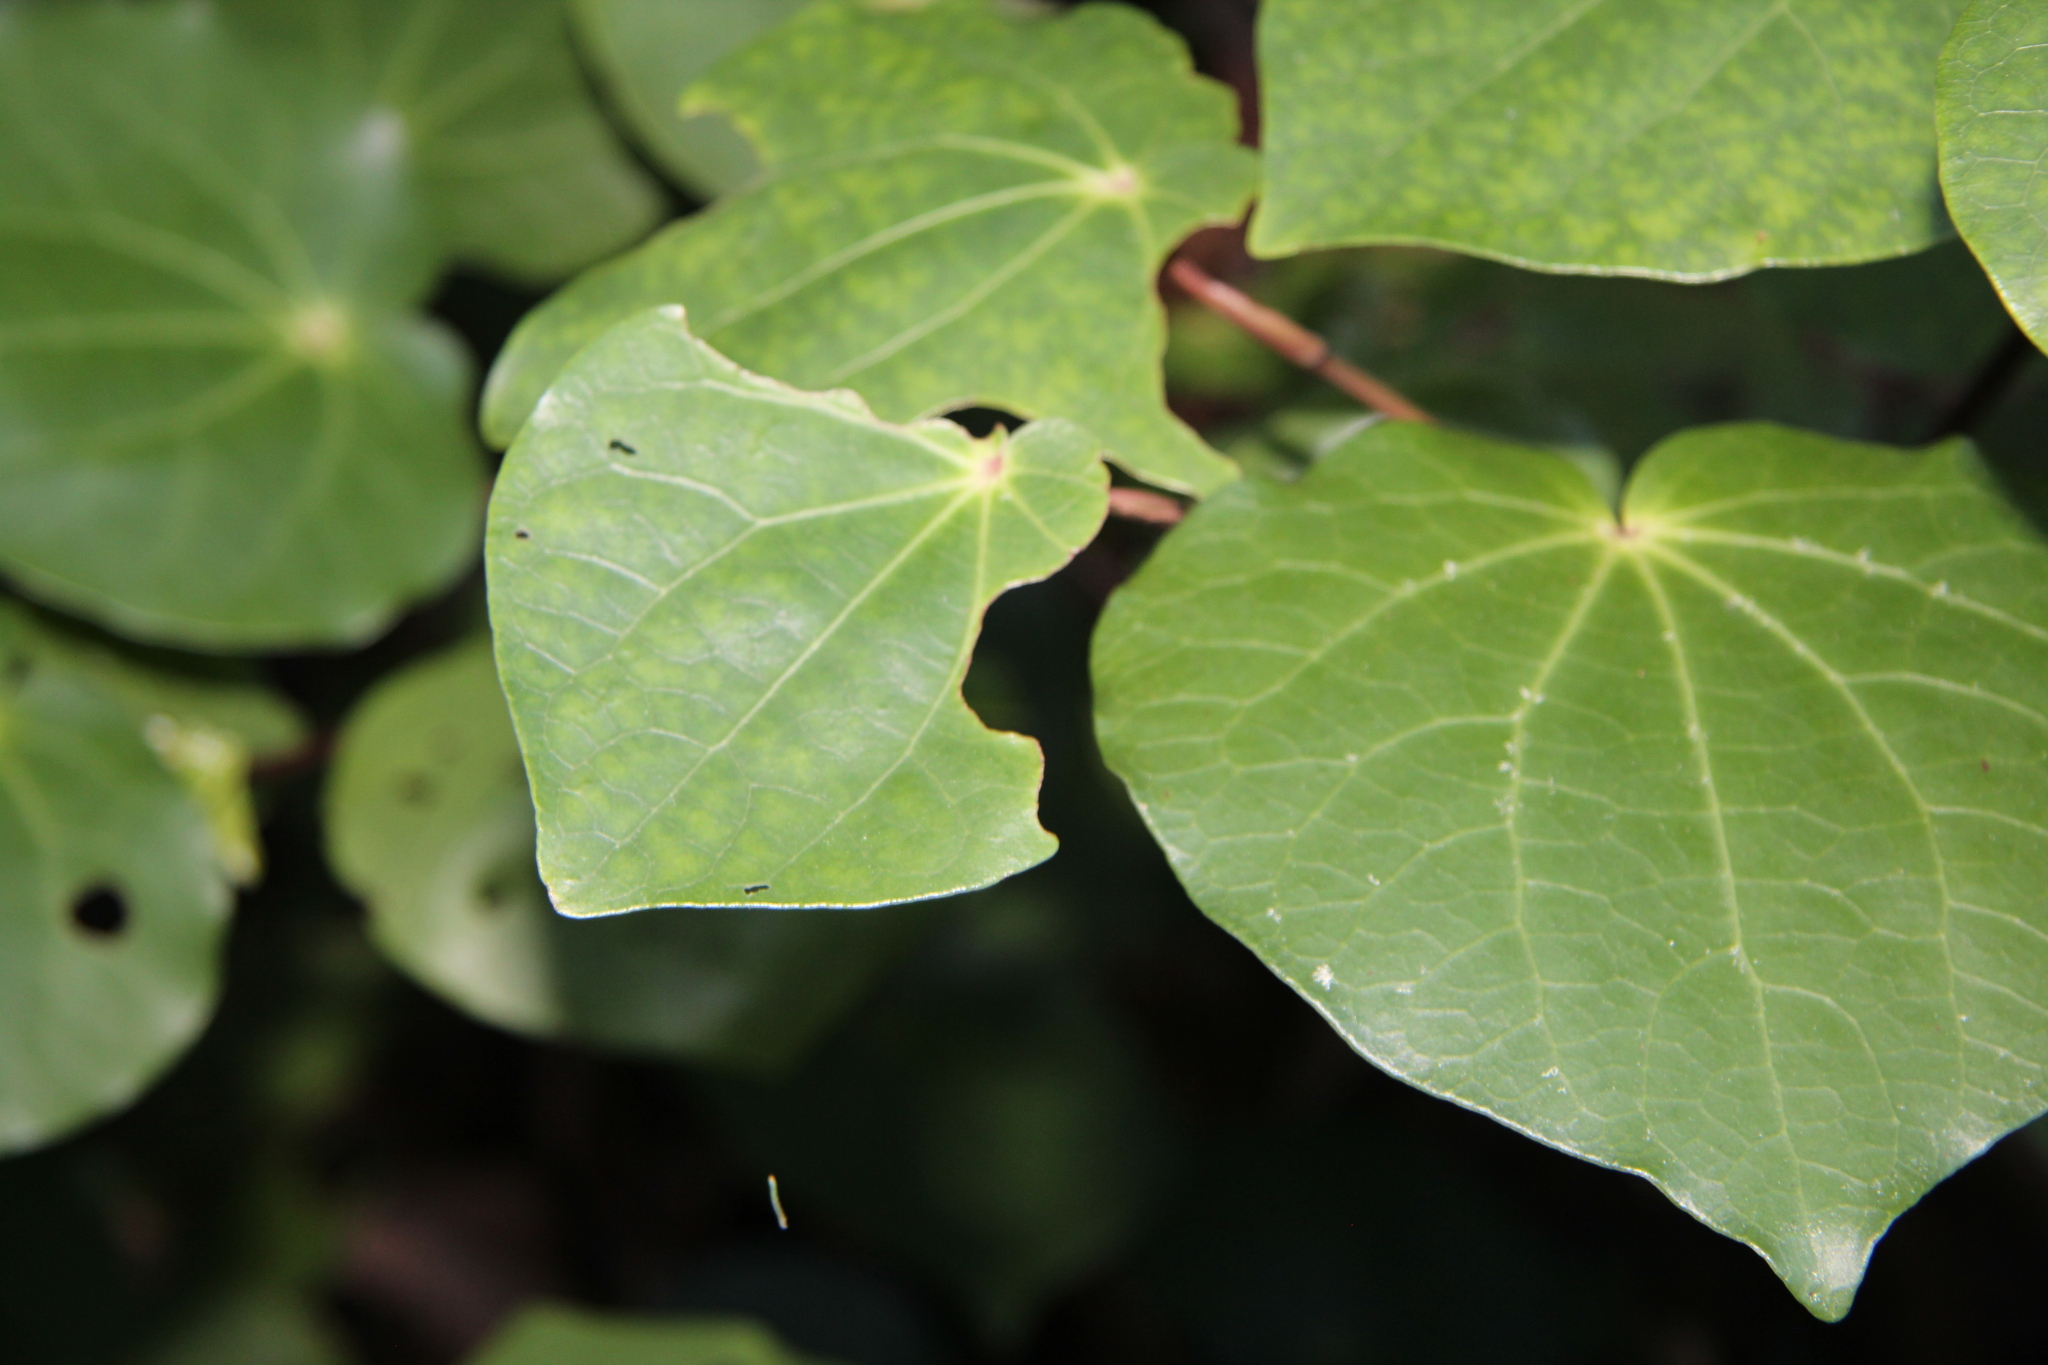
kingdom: Animalia
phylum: Arthropoda
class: Insecta
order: Lepidoptera
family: Geometridae
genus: Cleora
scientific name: Cleora scriptaria
